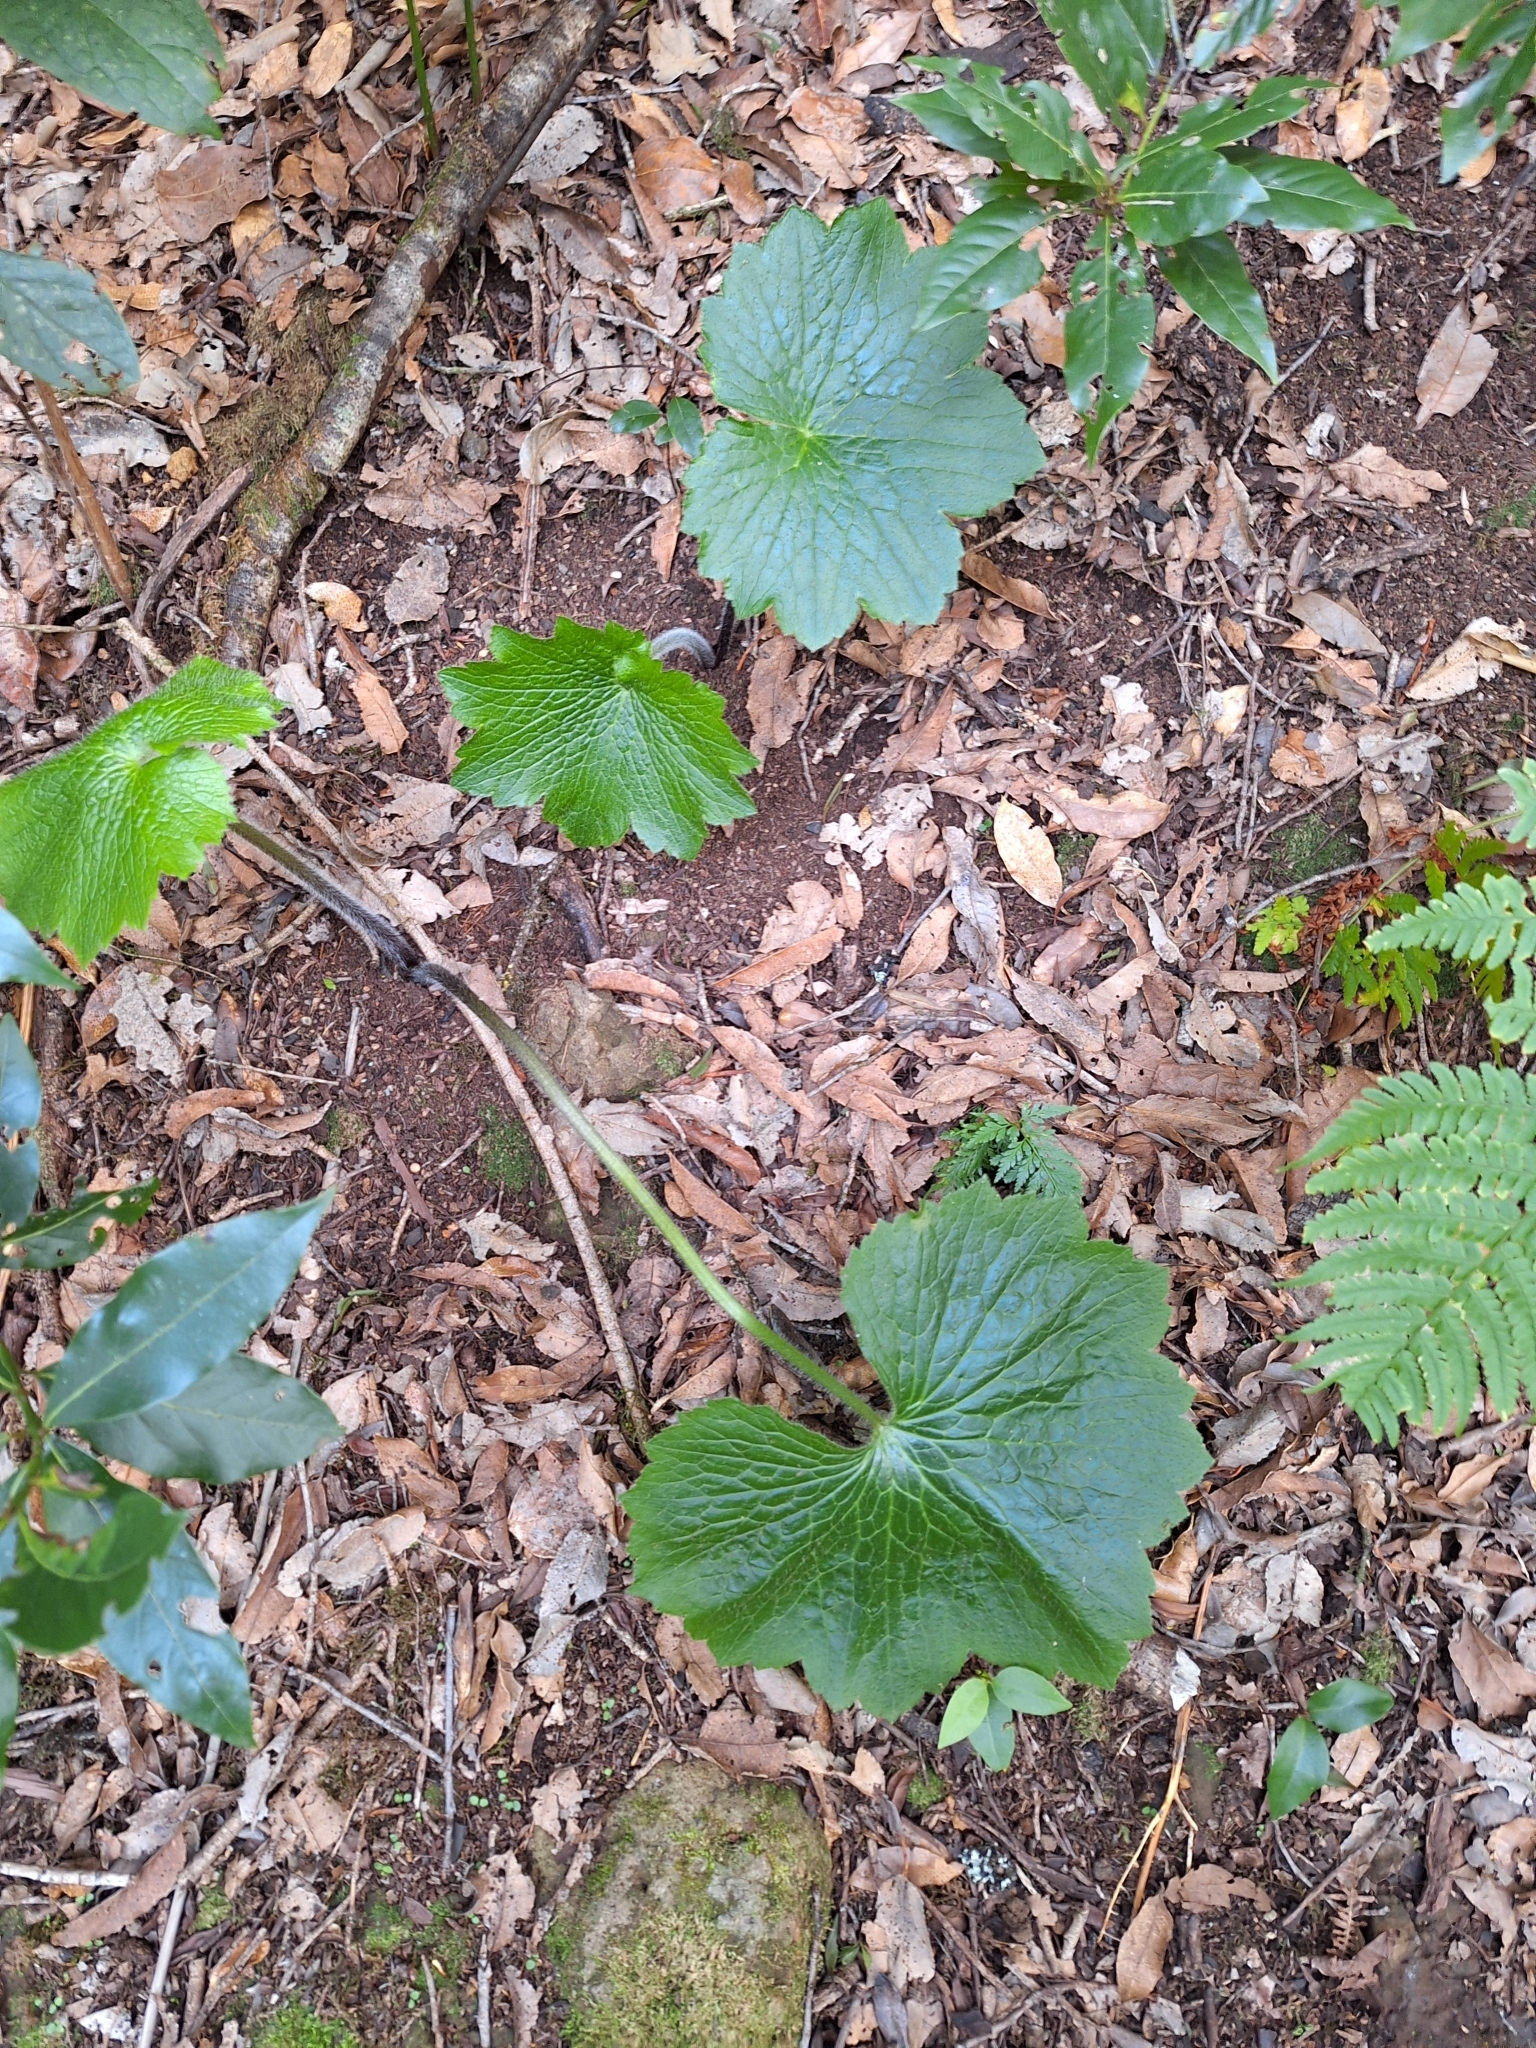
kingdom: Plantae
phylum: Tracheophyta
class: Magnoliopsida
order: Ranunculales
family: Ranunculaceae
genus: Ranunculus
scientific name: Ranunculus cortusifolius
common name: Azores buttercup
